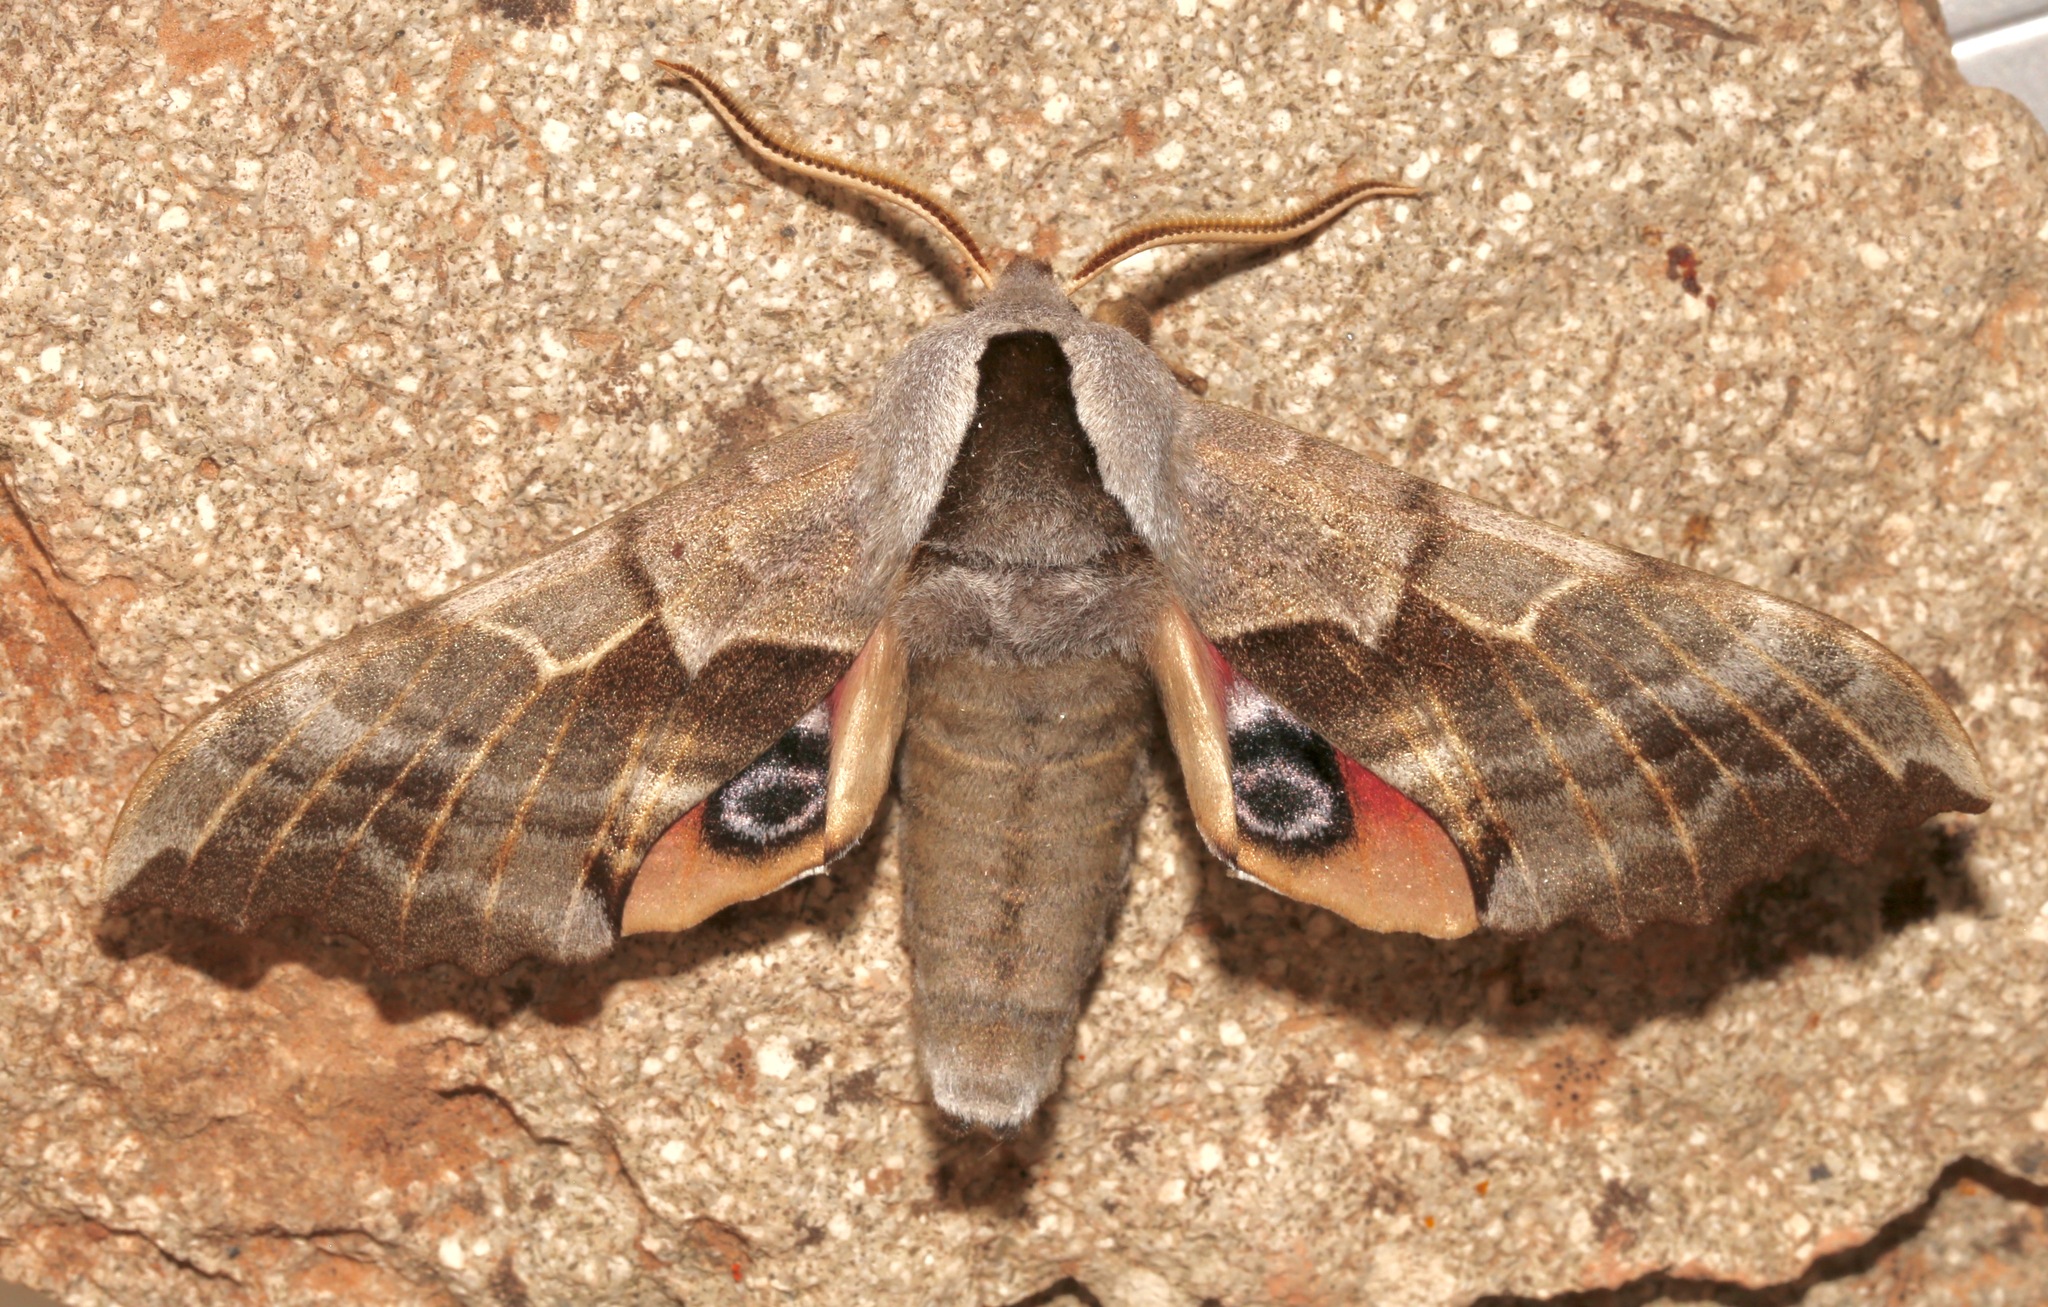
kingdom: Animalia
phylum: Arthropoda
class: Insecta
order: Lepidoptera
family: Sphingidae
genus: Smerinthus
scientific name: Smerinthus cerisyi
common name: Cerisy's sphinx moth
